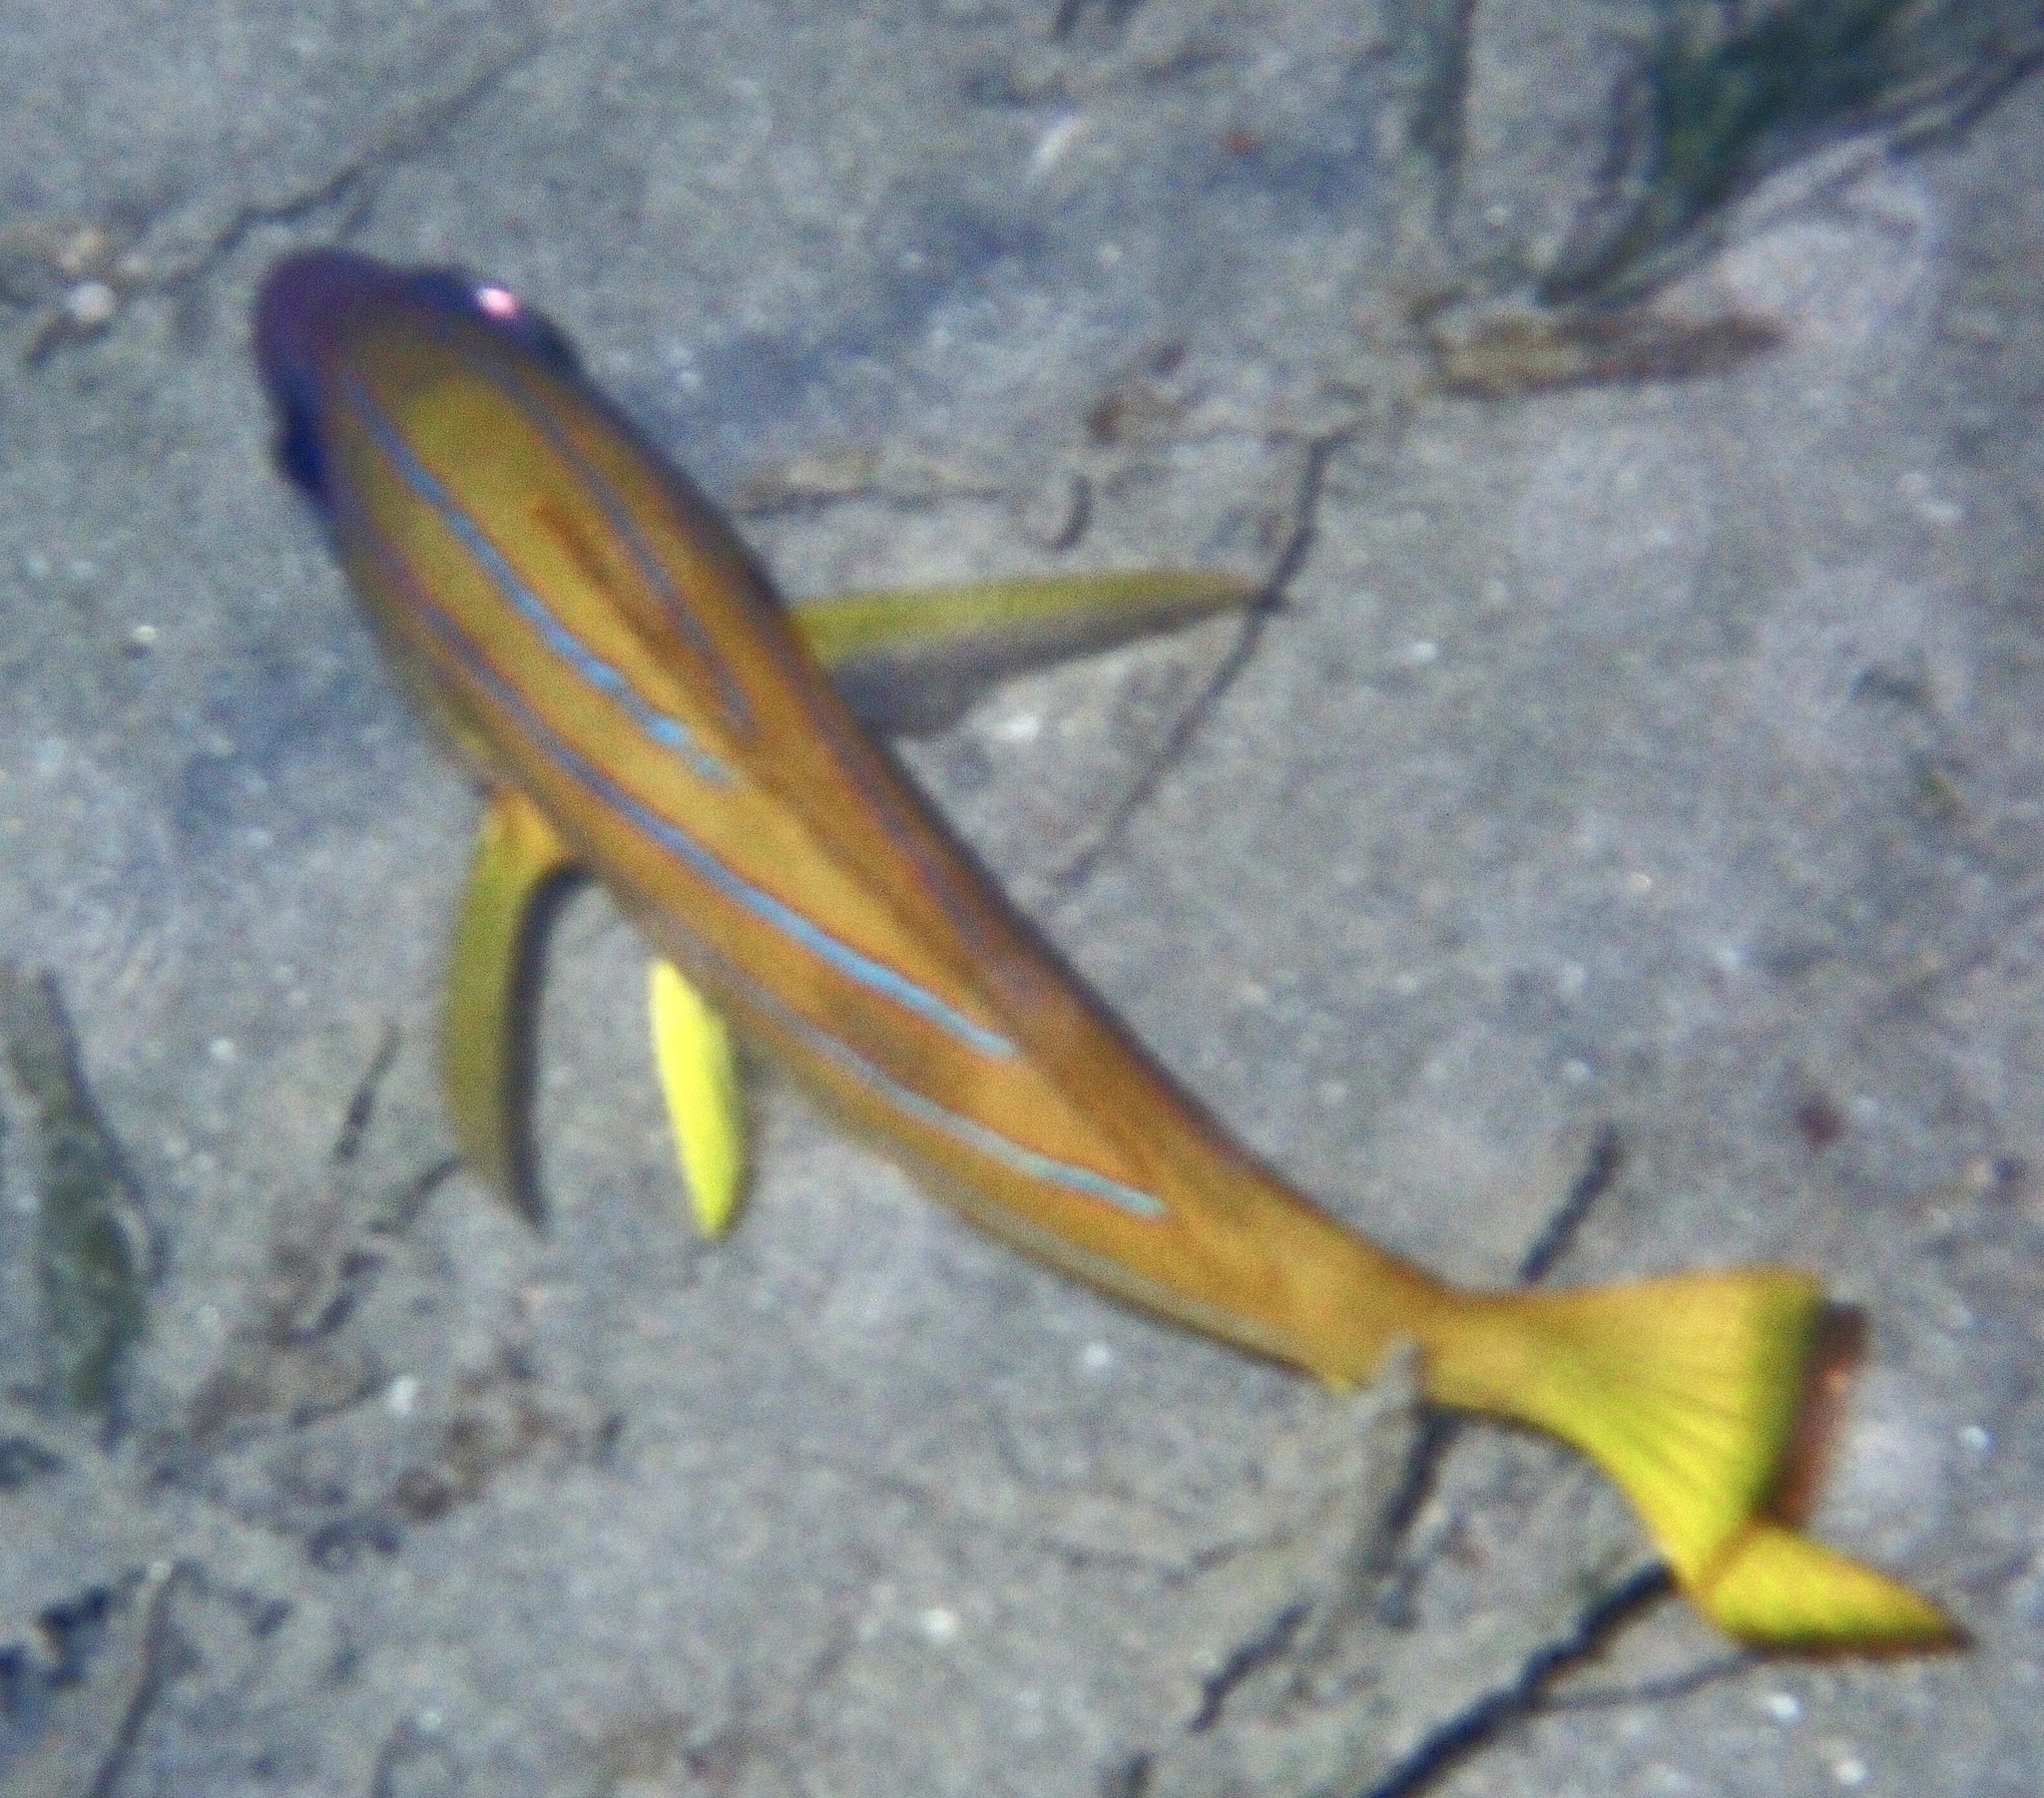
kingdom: Animalia
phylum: Chordata
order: Perciformes
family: Lutjanidae
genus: Lutjanus
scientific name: Lutjanus kasmira
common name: Common bluestripe snapper
